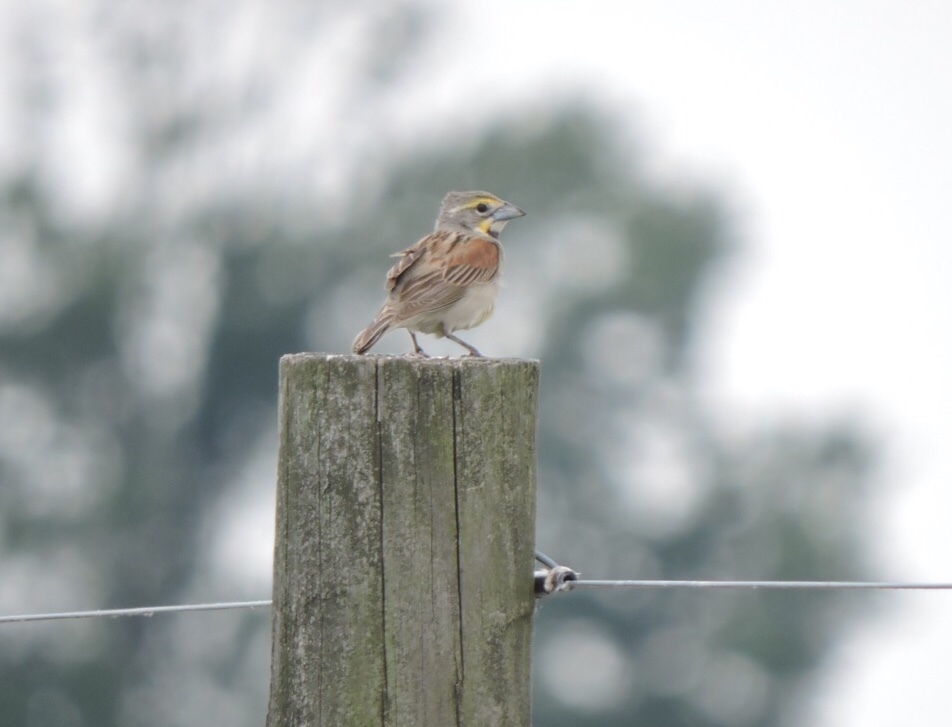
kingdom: Animalia
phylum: Chordata
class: Aves
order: Passeriformes
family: Cardinalidae
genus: Spiza
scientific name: Spiza americana
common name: Dickcissel
